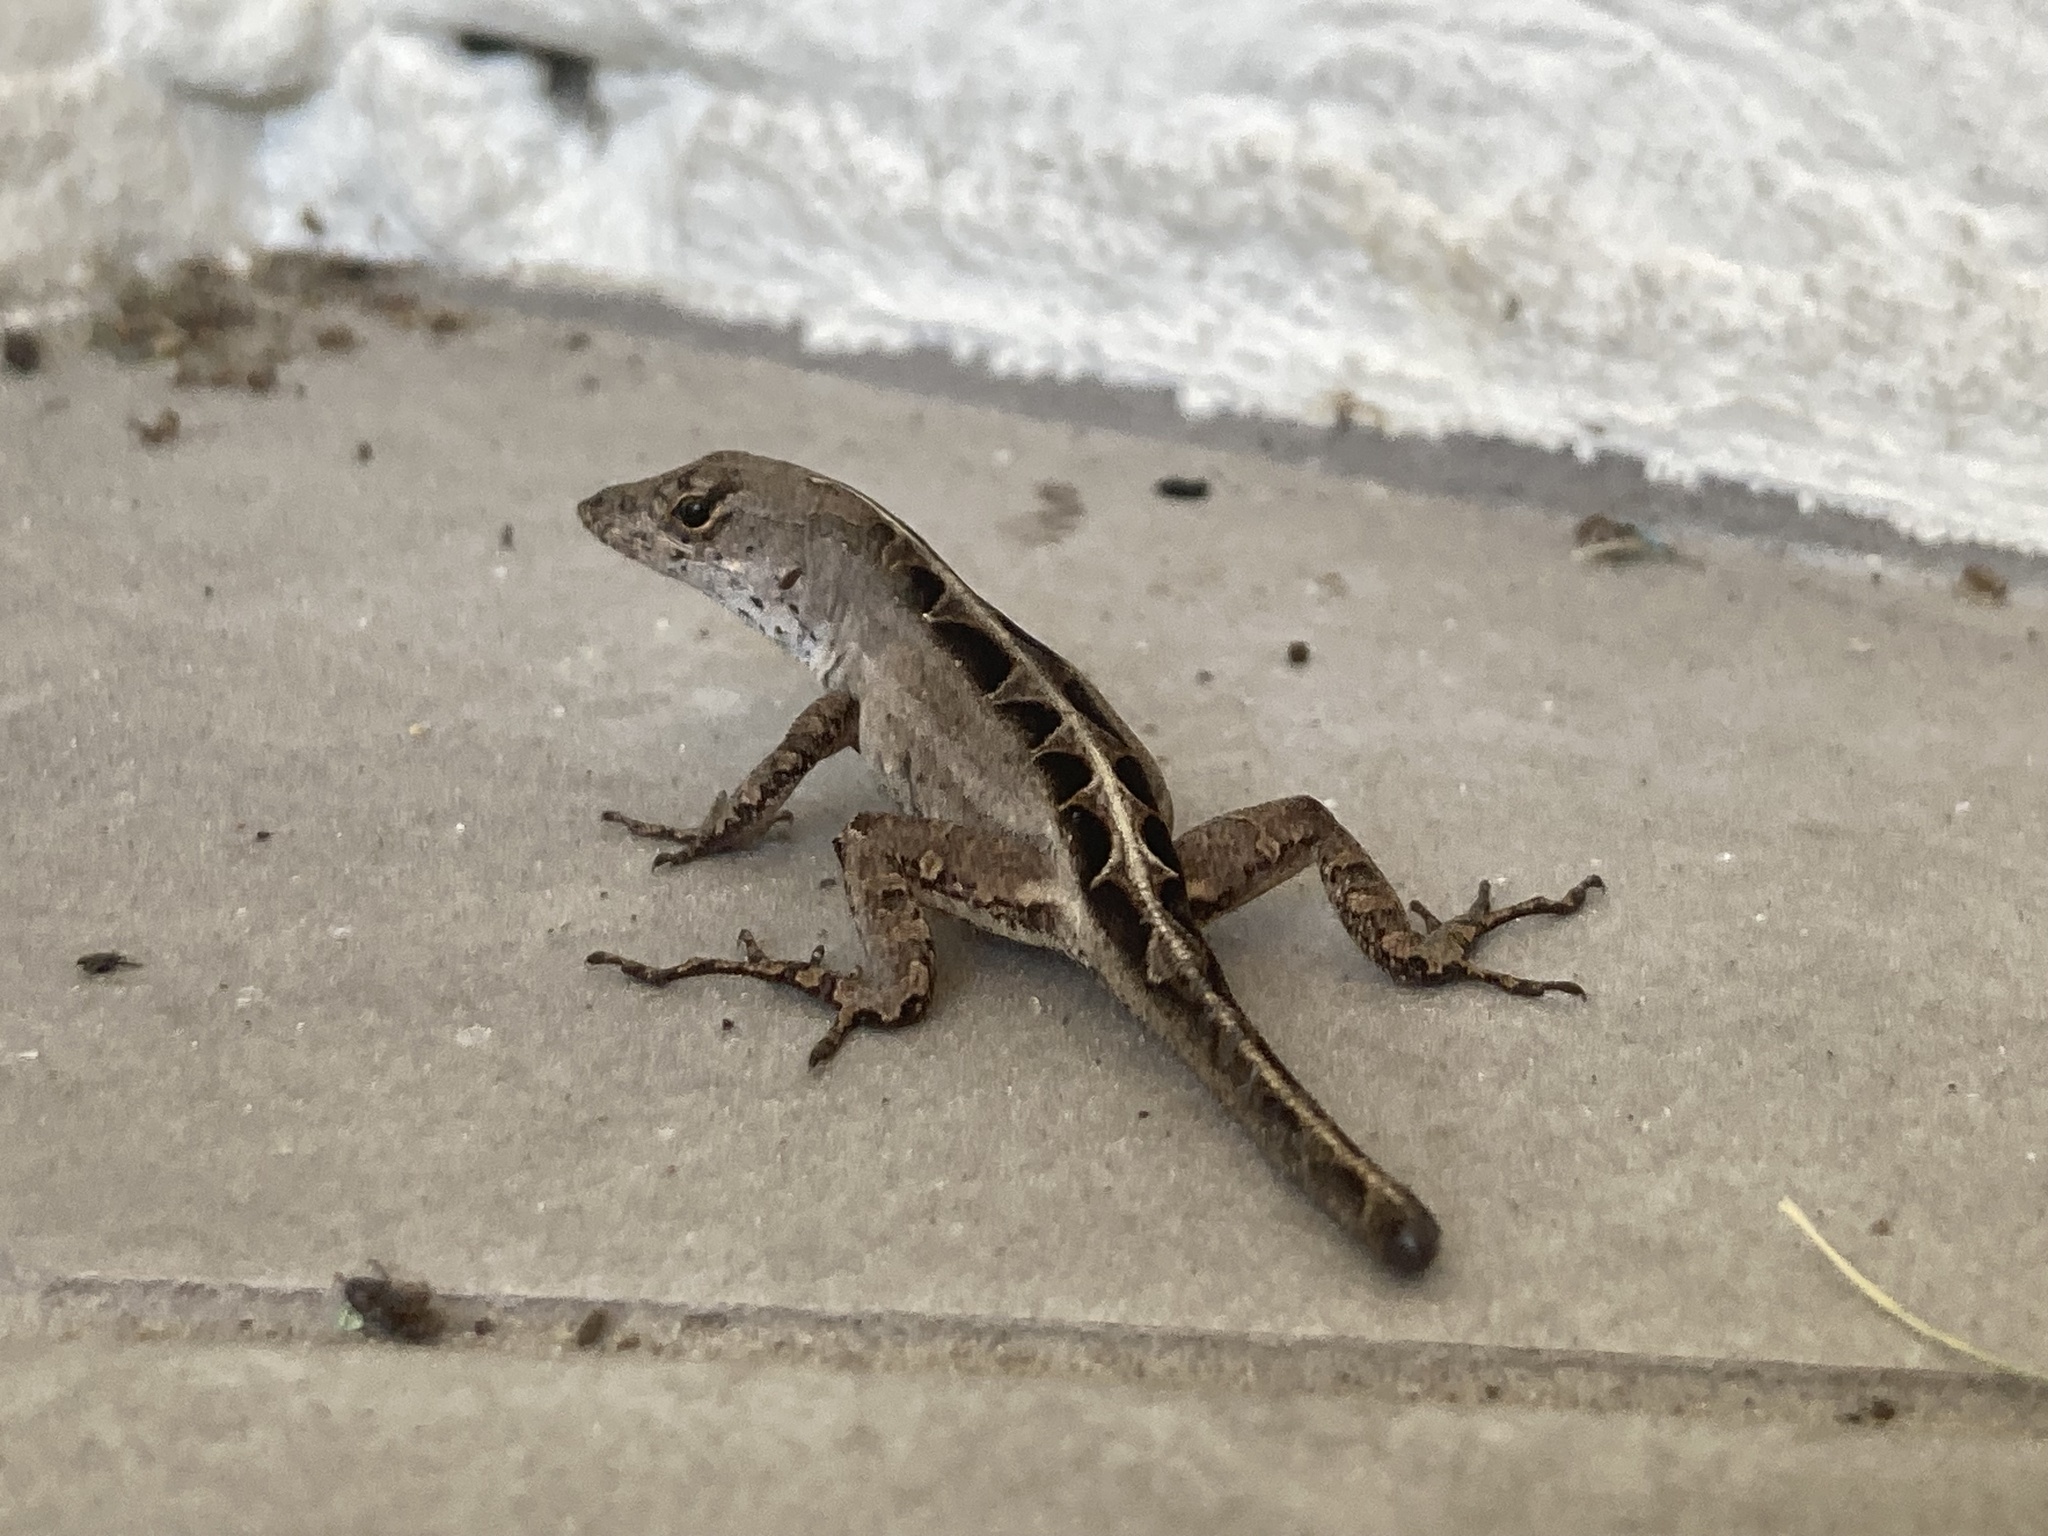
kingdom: Animalia
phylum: Chordata
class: Squamata
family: Dactyloidae
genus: Anolis
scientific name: Anolis sagrei
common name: Brown anole
